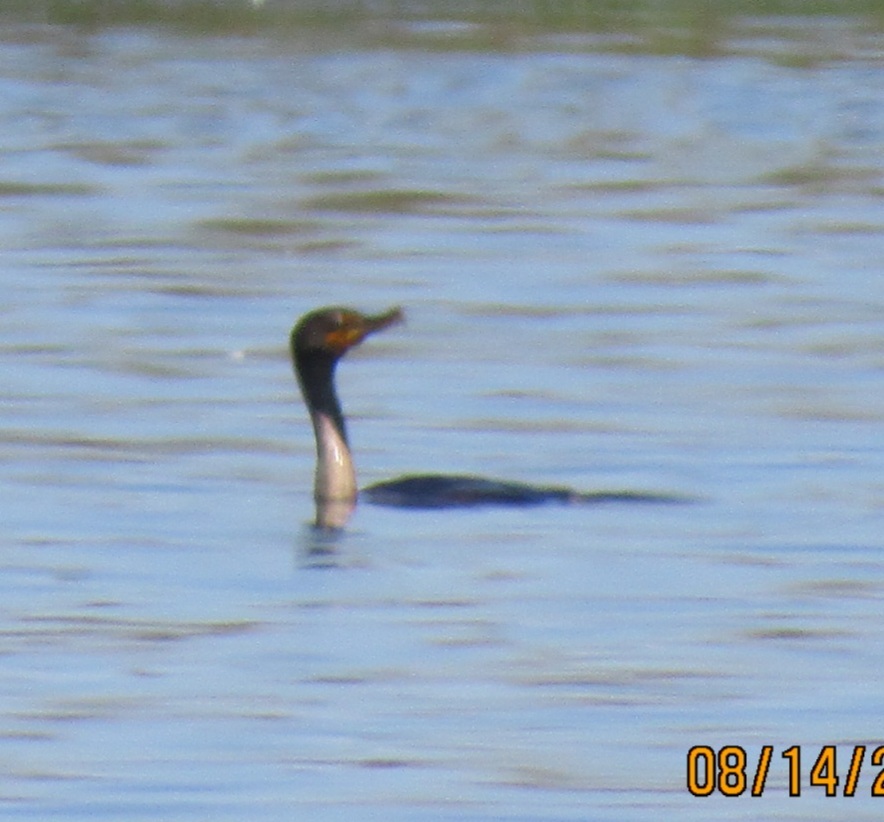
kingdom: Animalia
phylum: Chordata
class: Aves
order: Suliformes
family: Phalacrocoracidae
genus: Phalacrocorax
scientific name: Phalacrocorax auritus
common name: Double-crested cormorant
